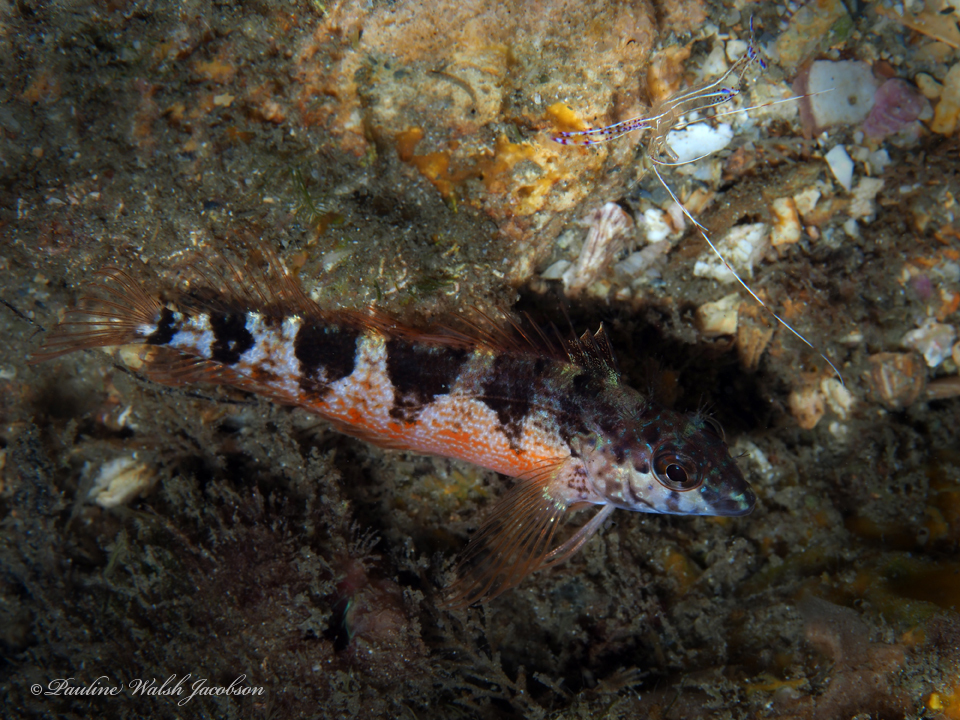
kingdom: Animalia
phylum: Chordata
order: Perciformes
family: Labrisomidae
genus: Malacoctenus
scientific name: Malacoctenus triangulatus
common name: Saddled blenny
